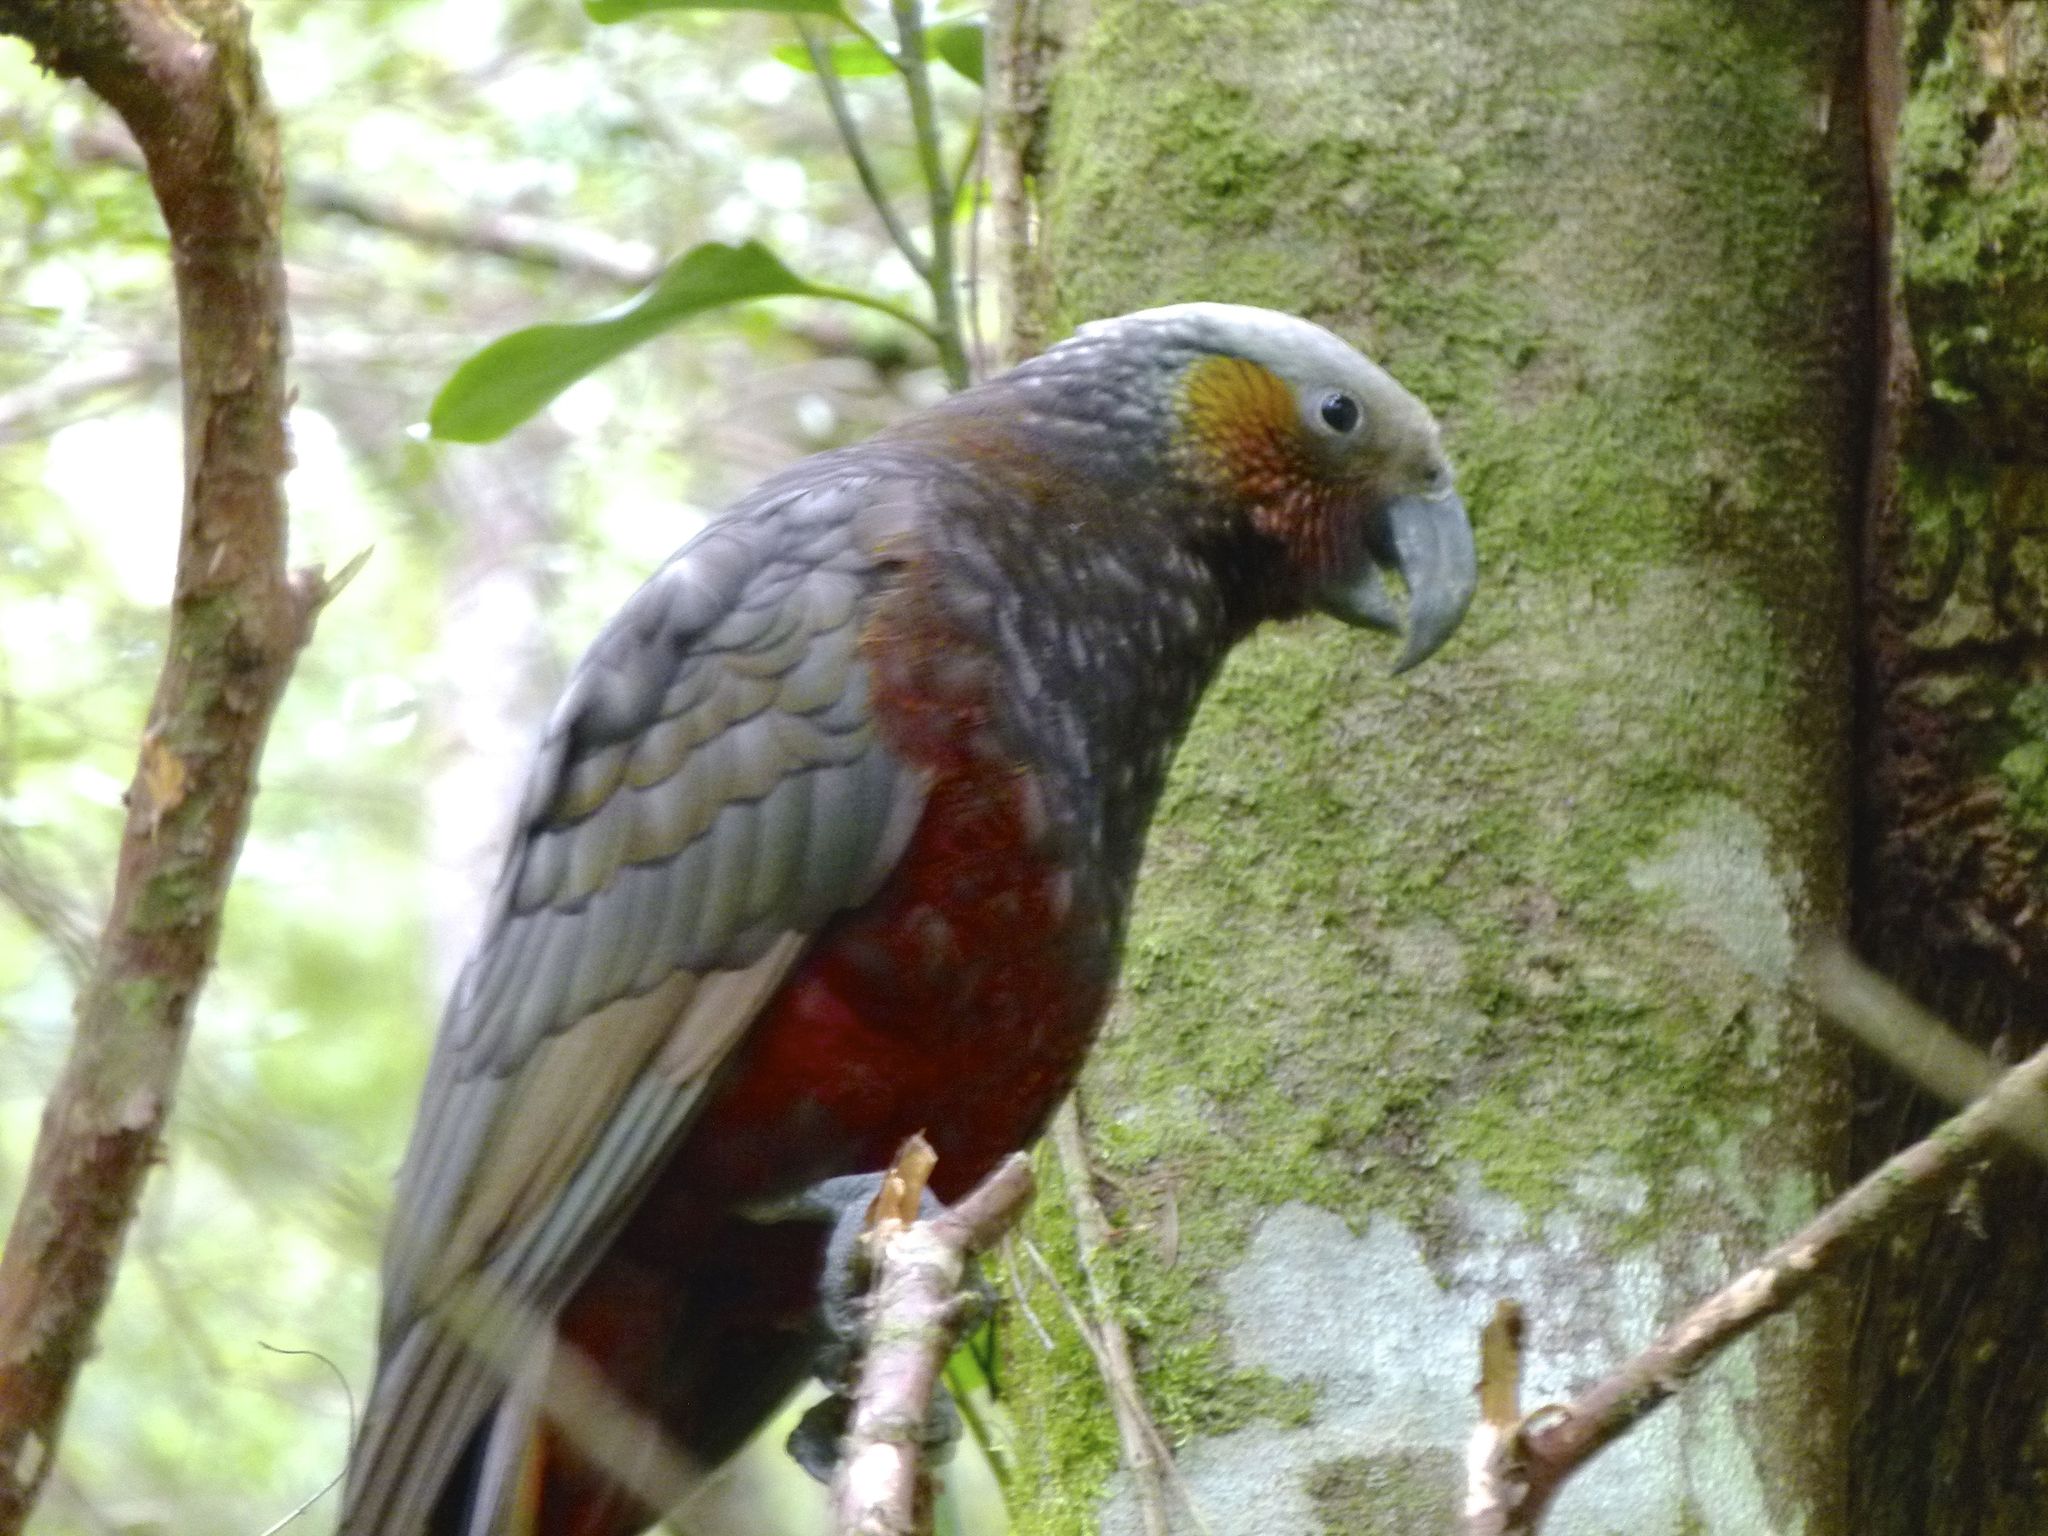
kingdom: Animalia
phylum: Chordata
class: Aves
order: Psittaciformes
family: Psittacidae
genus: Nestor
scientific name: Nestor meridionalis
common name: New zealand kaka
